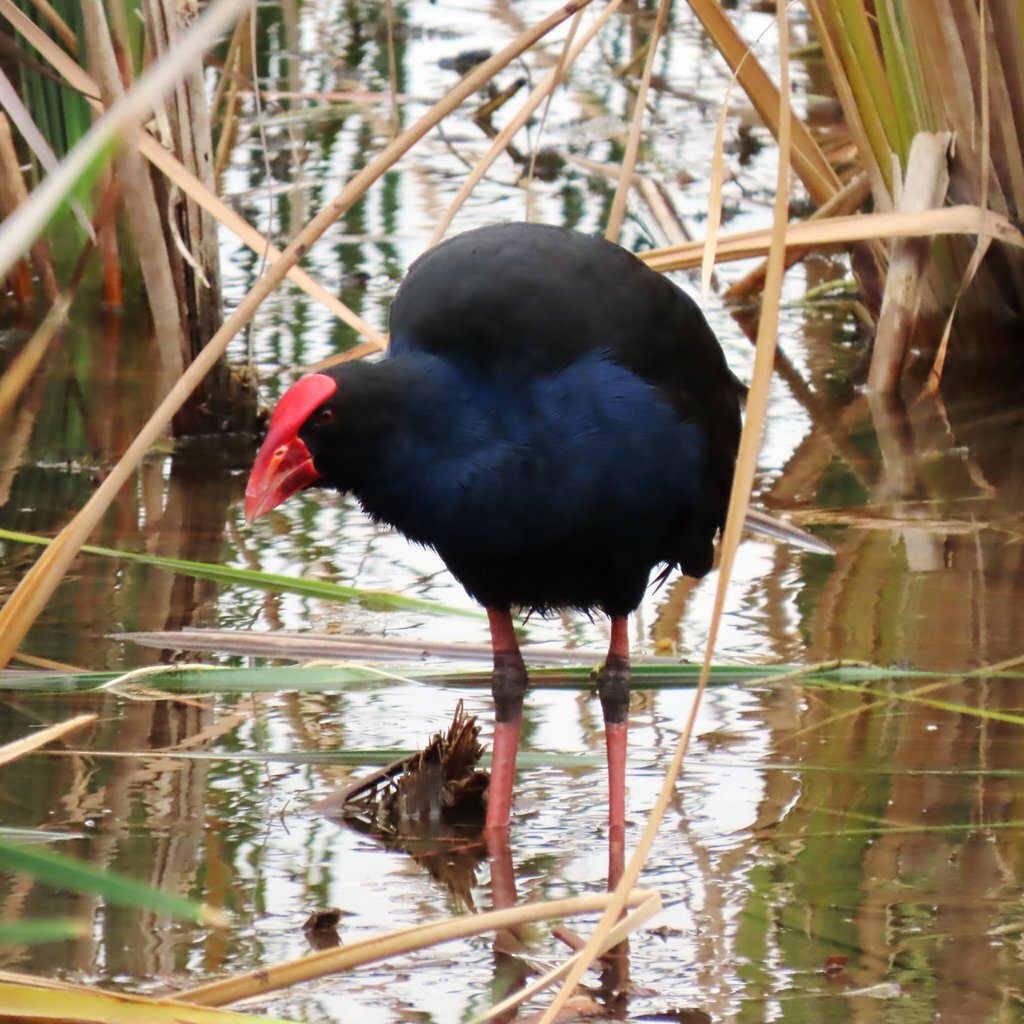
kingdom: Animalia
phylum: Chordata
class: Aves
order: Gruiformes
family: Rallidae
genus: Porphyrio
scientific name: Porphyrio melanotus
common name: Australasian swamphen
